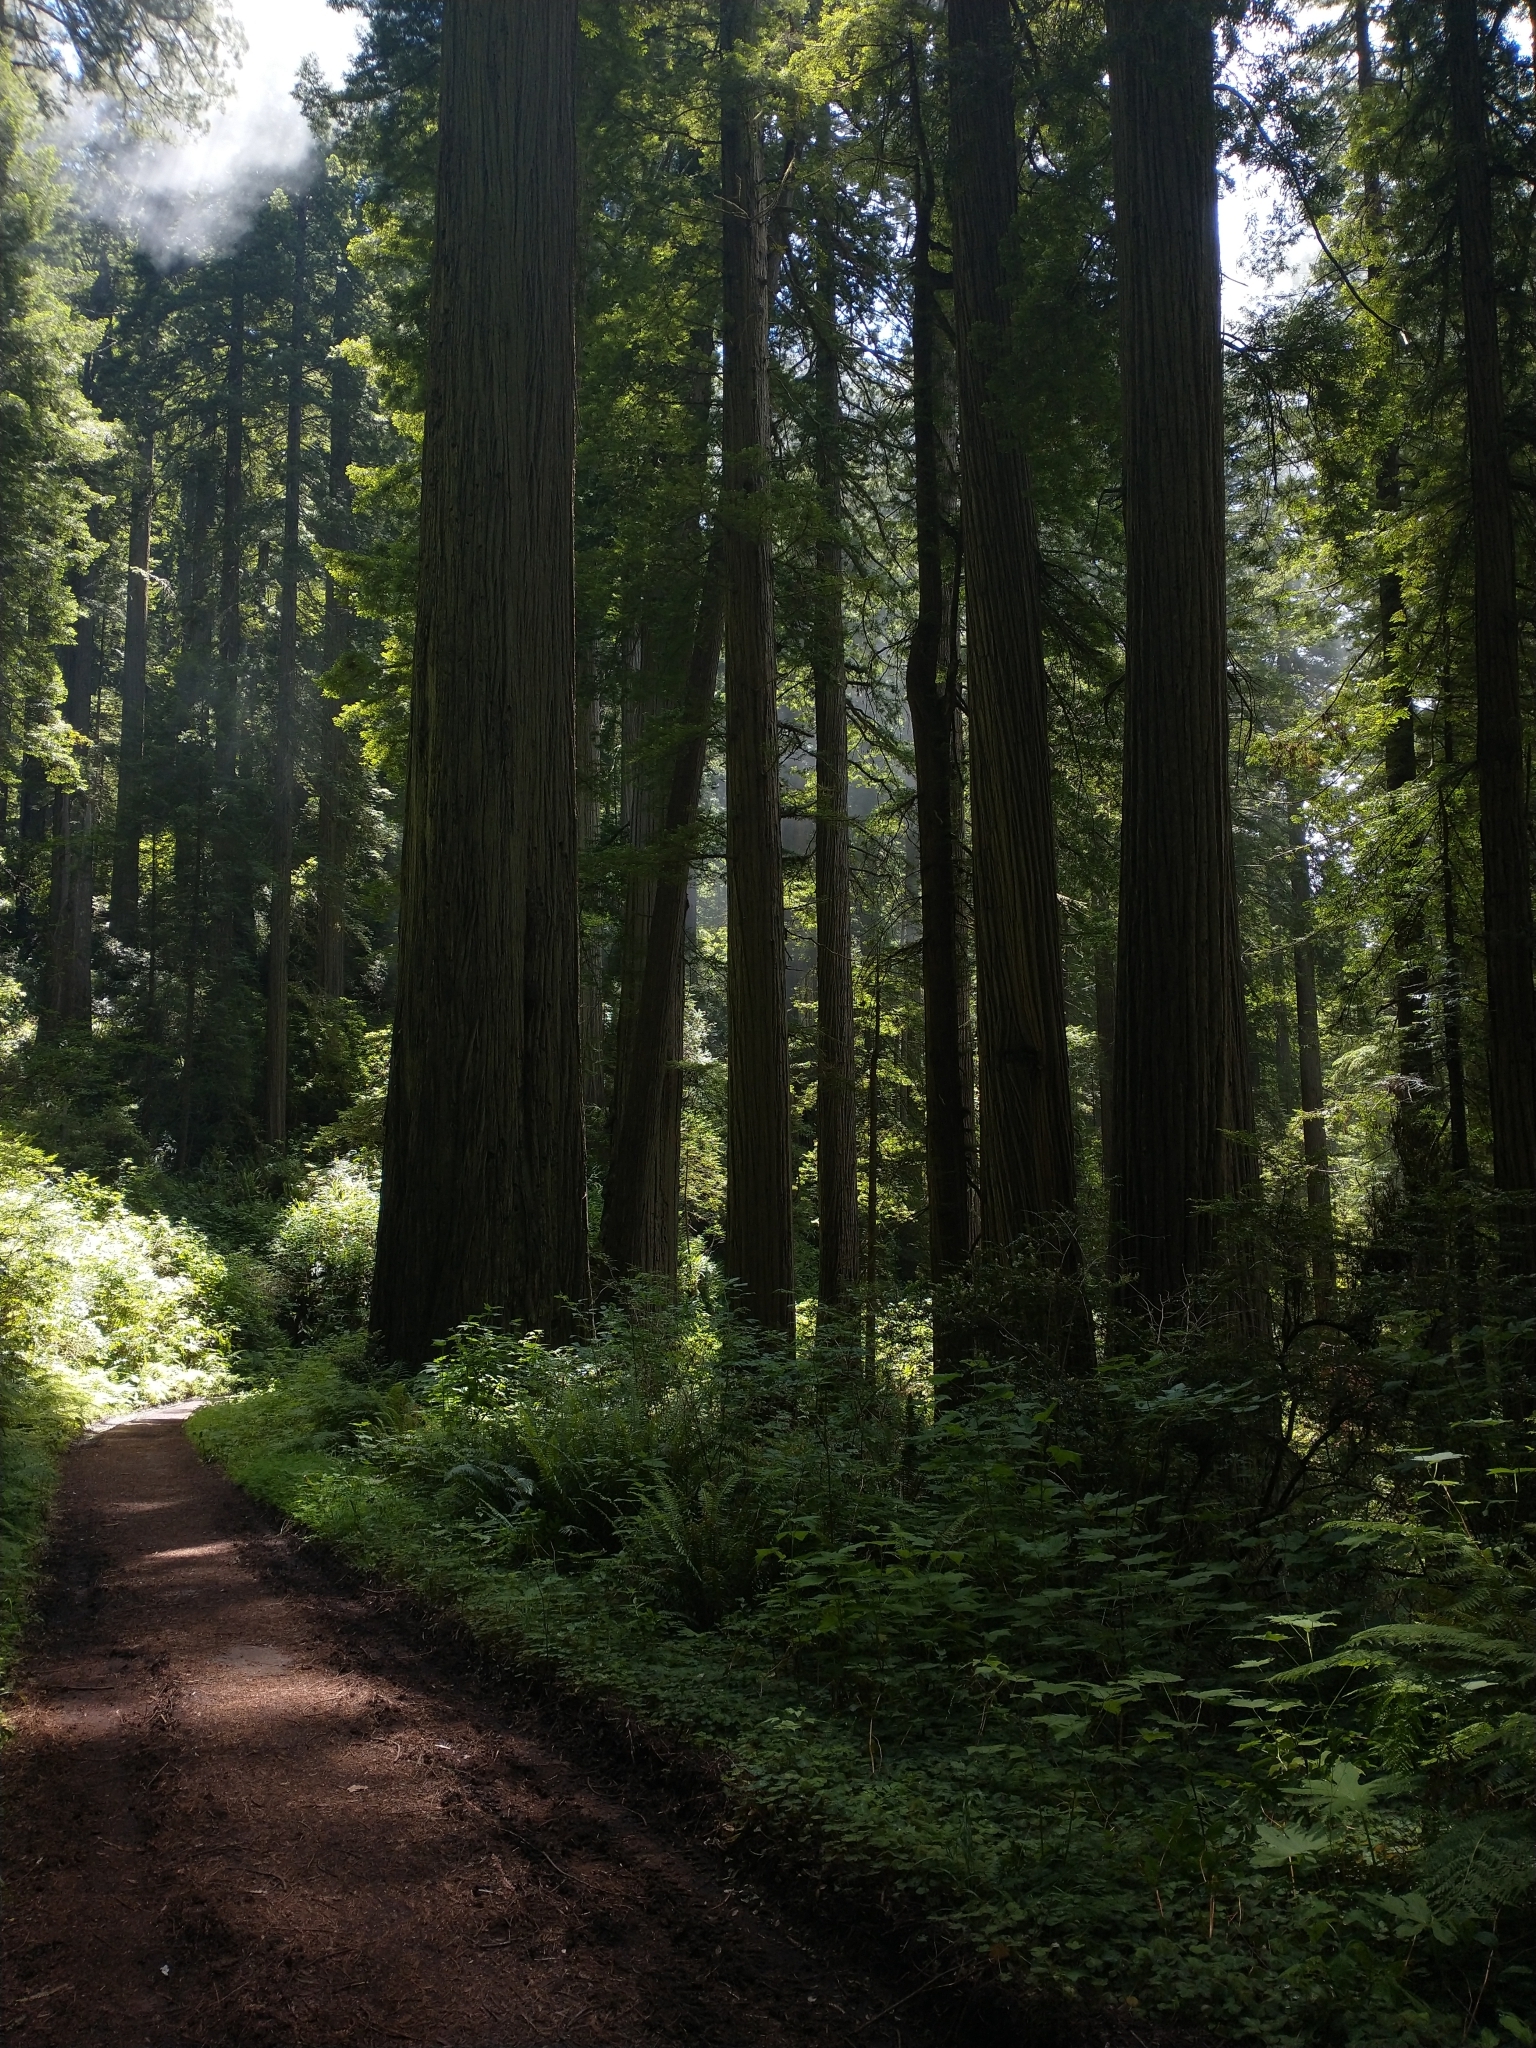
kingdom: Plantae
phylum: Tracheophyta
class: Pinopsida
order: Pinales
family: Cupressaceae
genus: Sequoia
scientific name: Sequoia sempervirens
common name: Coast redwood
